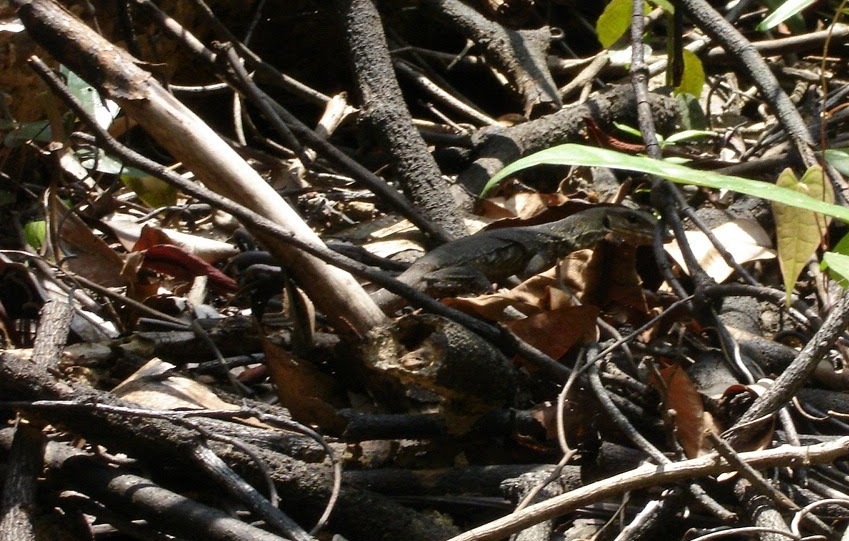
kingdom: Animalia
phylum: Chordata
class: Squamata
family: Varanidae
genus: Varanus
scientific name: Varanus nebulosus
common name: Clouded monitor
